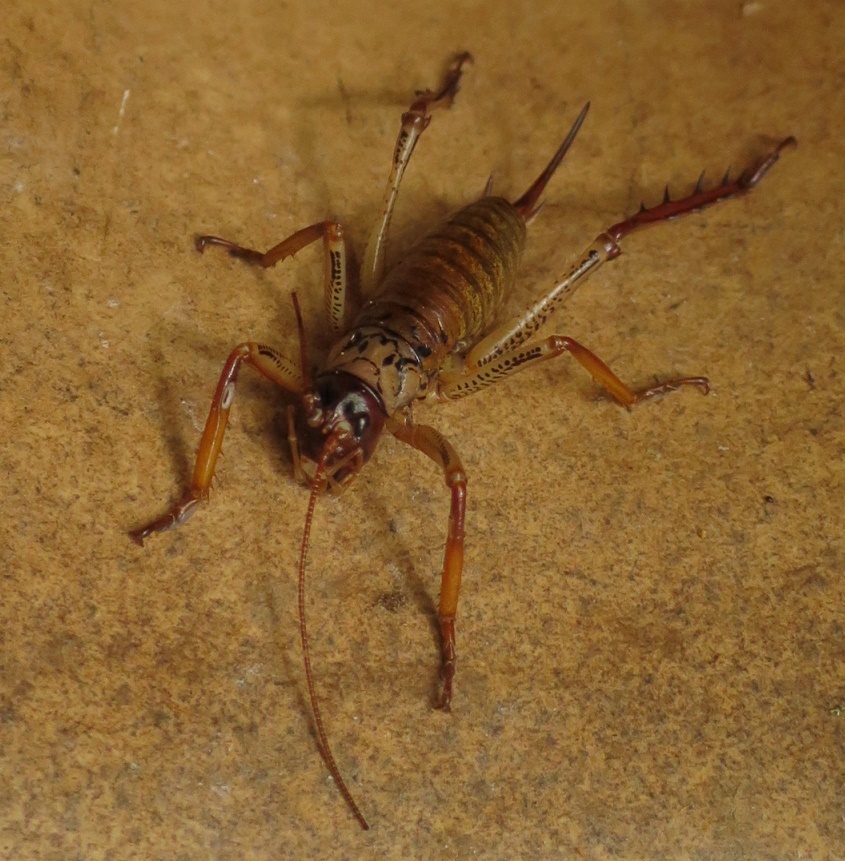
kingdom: Animalia
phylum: Arthropoda
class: Insecta
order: Orthoptera
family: Anostostomatidae
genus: Hemideina
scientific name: Hemideina thoracica
